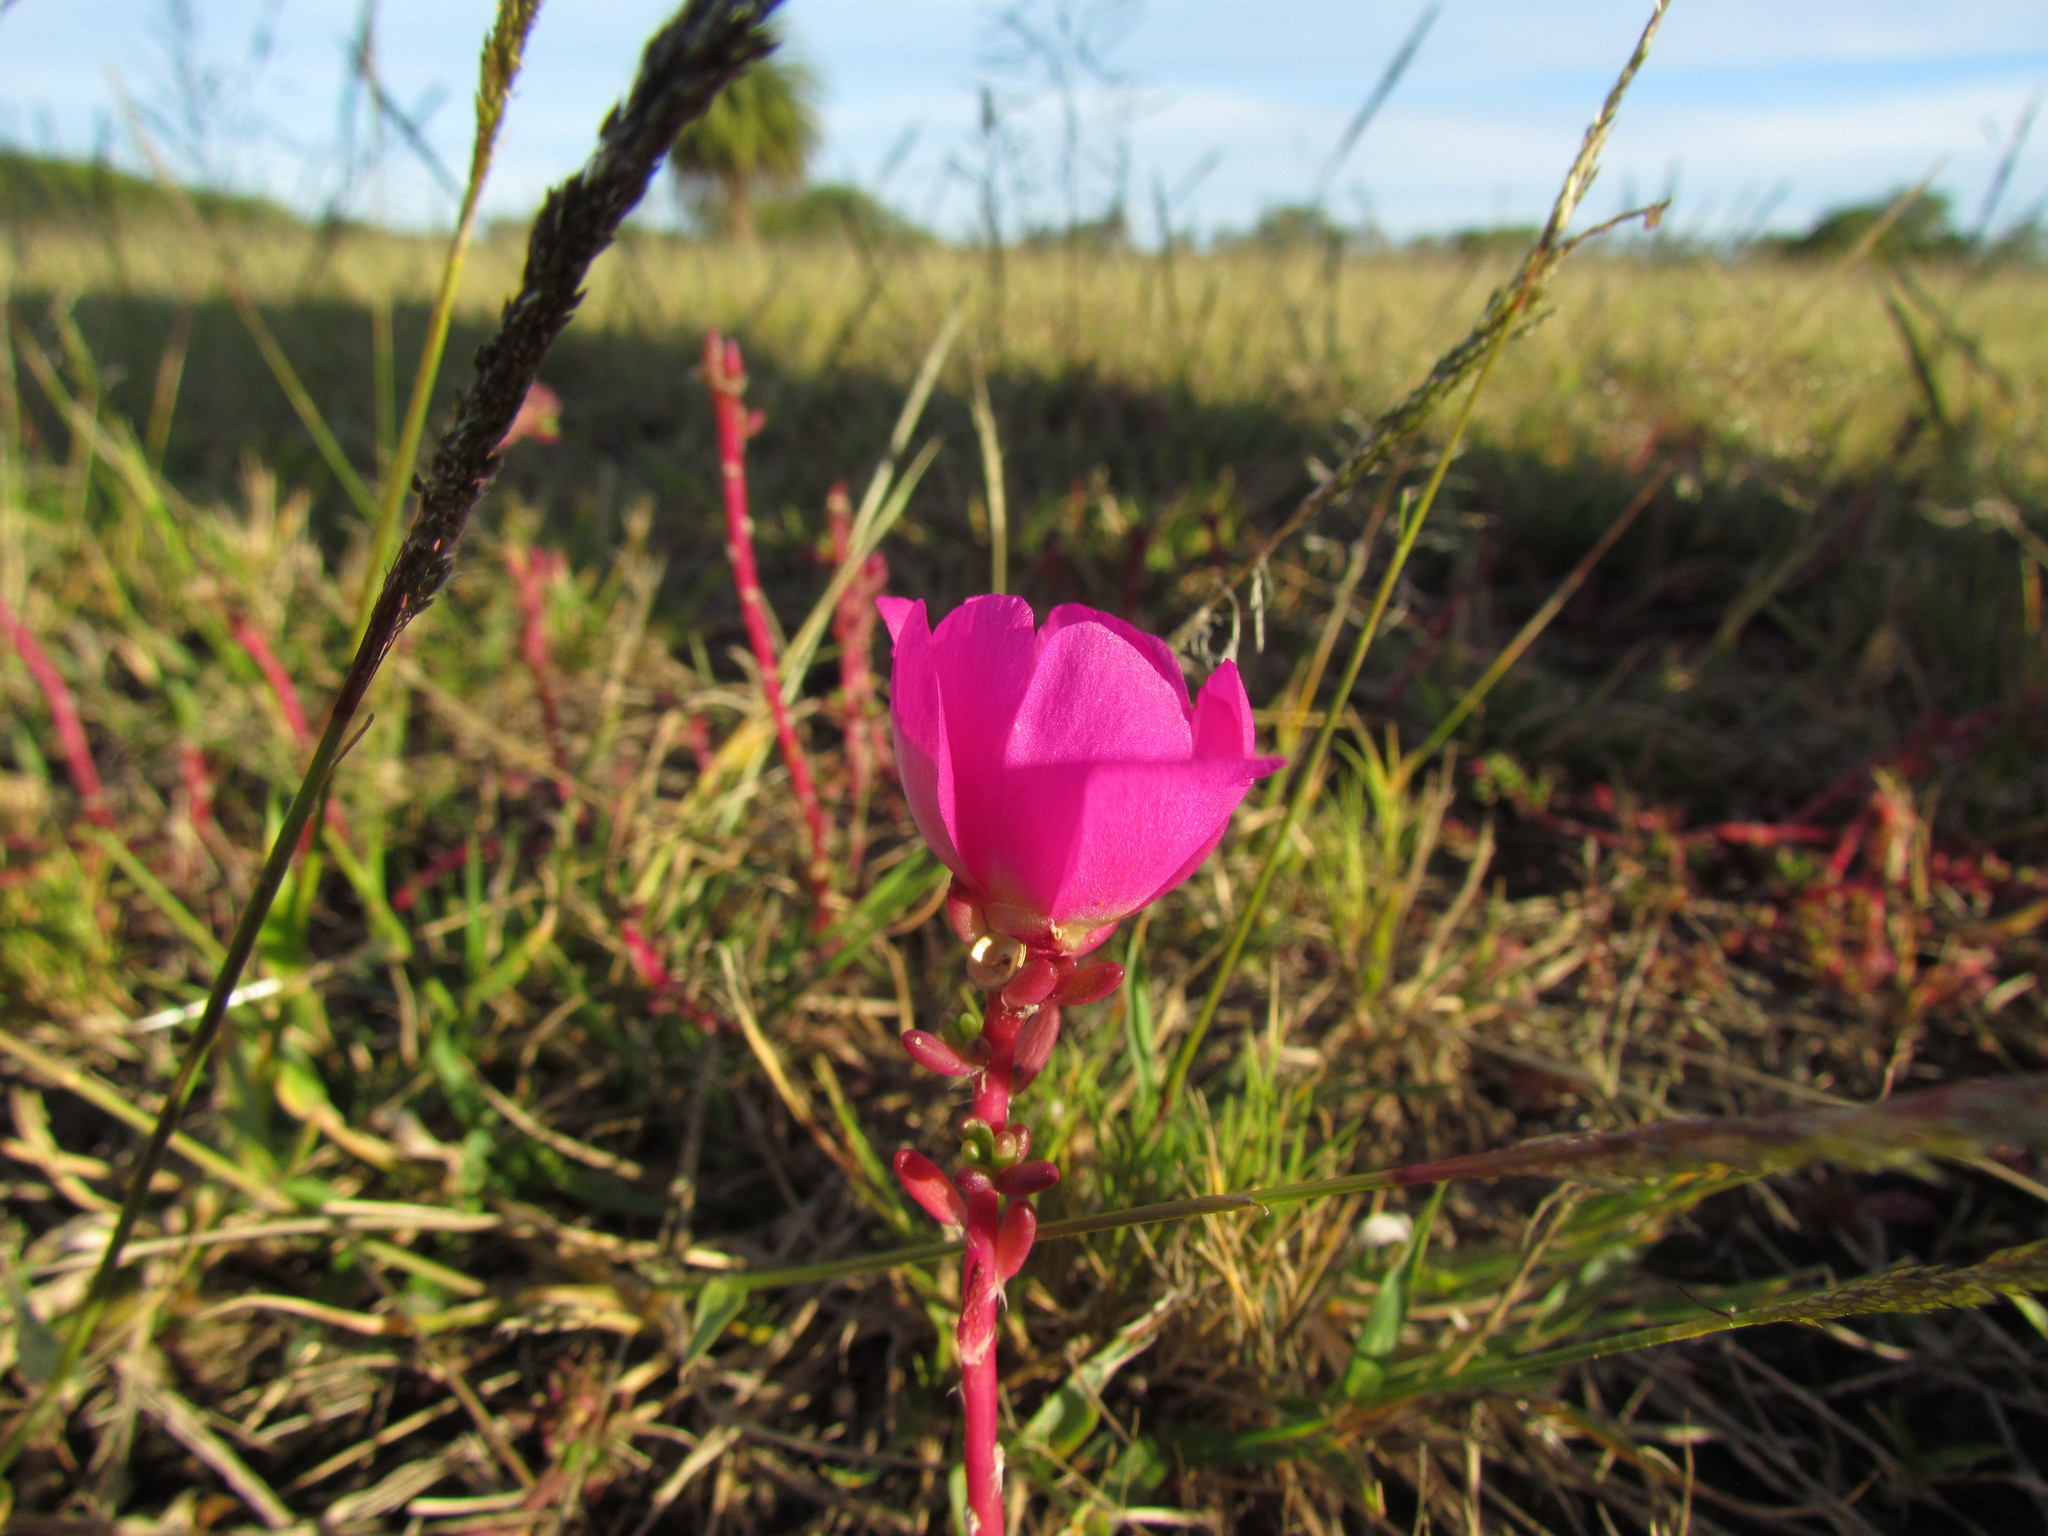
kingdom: Plantae
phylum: Tracheophyta
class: Magnoliopsida
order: Caryophyllales
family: Portulacaceae
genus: Portulaca
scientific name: Portulaca grandiflora
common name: Moss-rose
